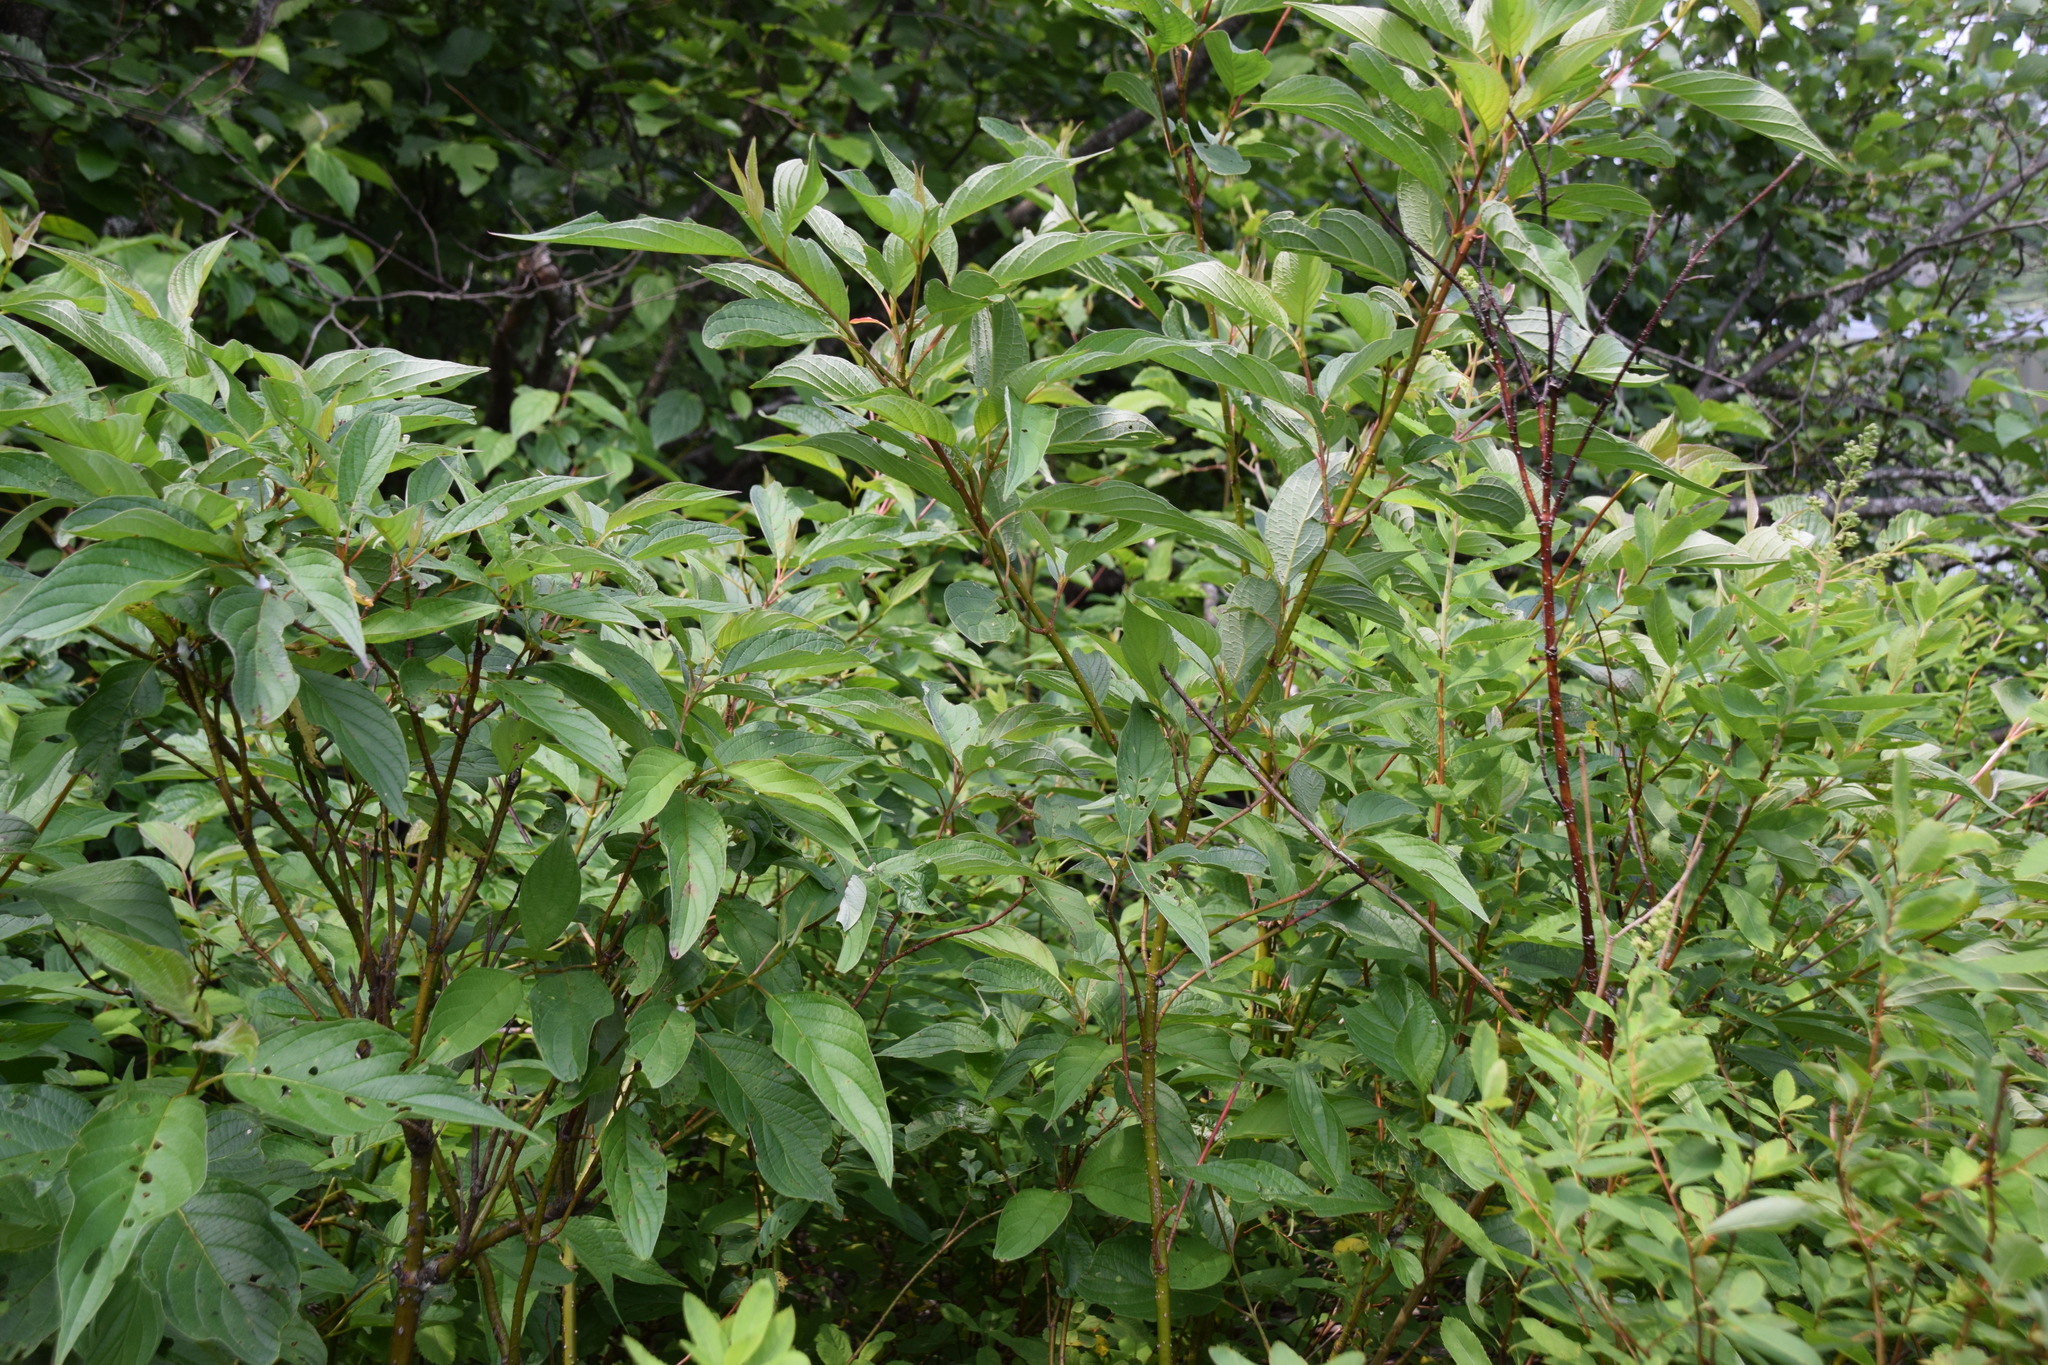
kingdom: Plantae
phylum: Tracheophyta
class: Magnoliopsida
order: Cornales
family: Cornaceae
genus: Cornus
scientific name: Cornus sericea
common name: Red-osier dogwood
